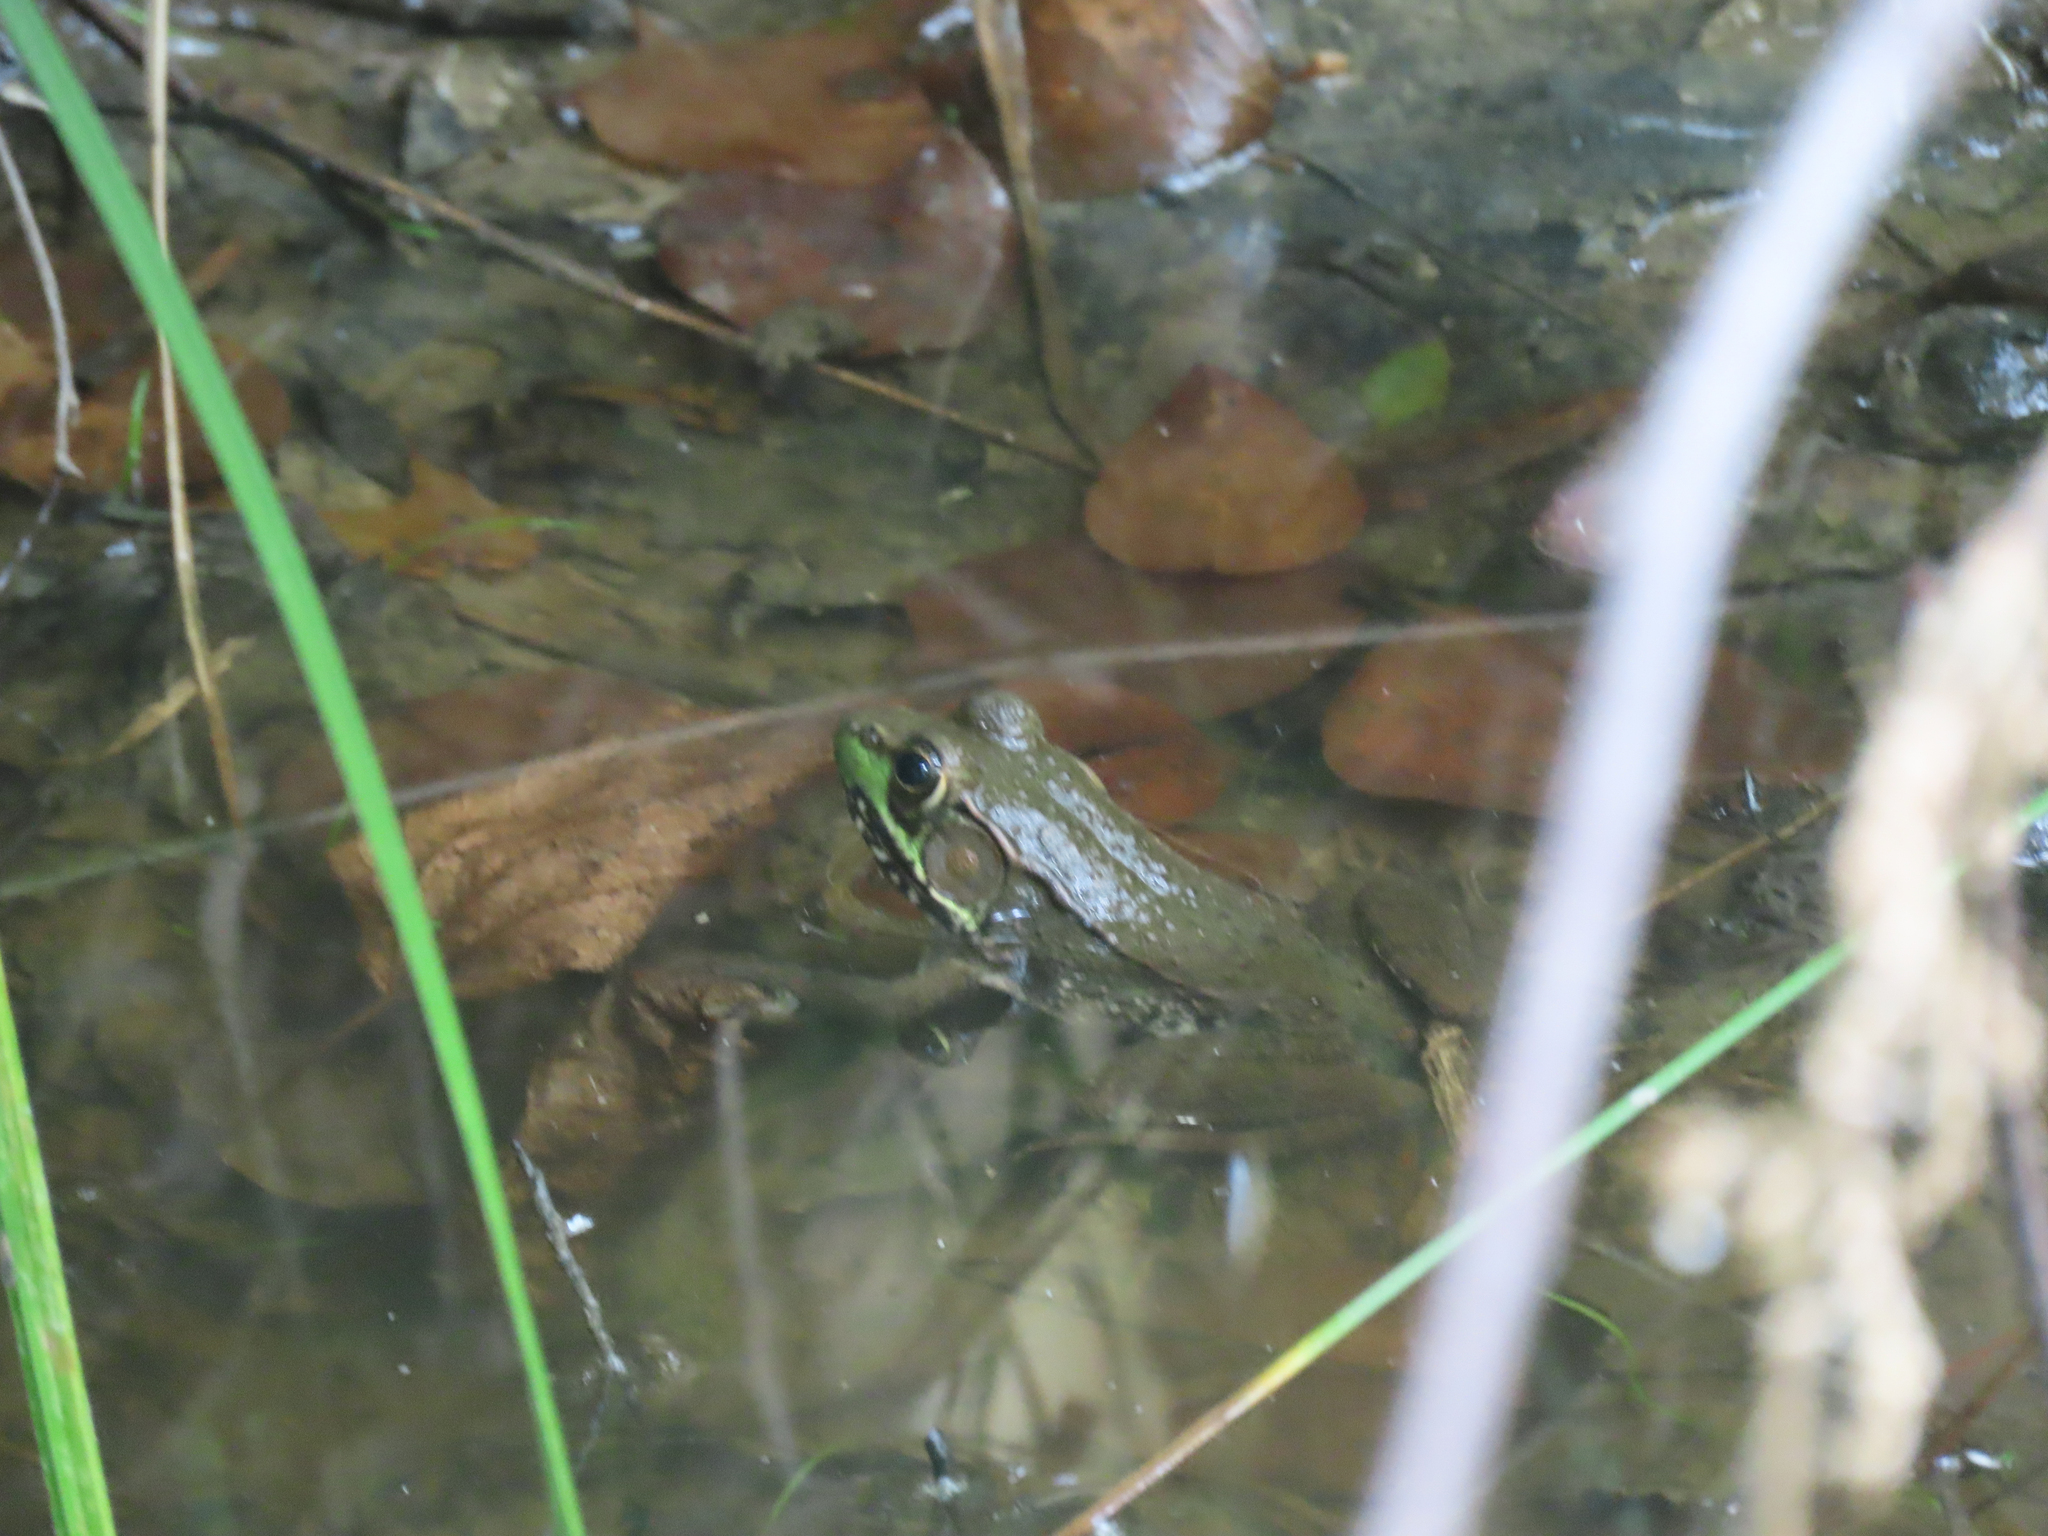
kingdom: Animalia
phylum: Chordata
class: Amphibia
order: Anura
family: Ranidae
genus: Lithobates
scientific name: Lithobates clamitans
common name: Green frog
